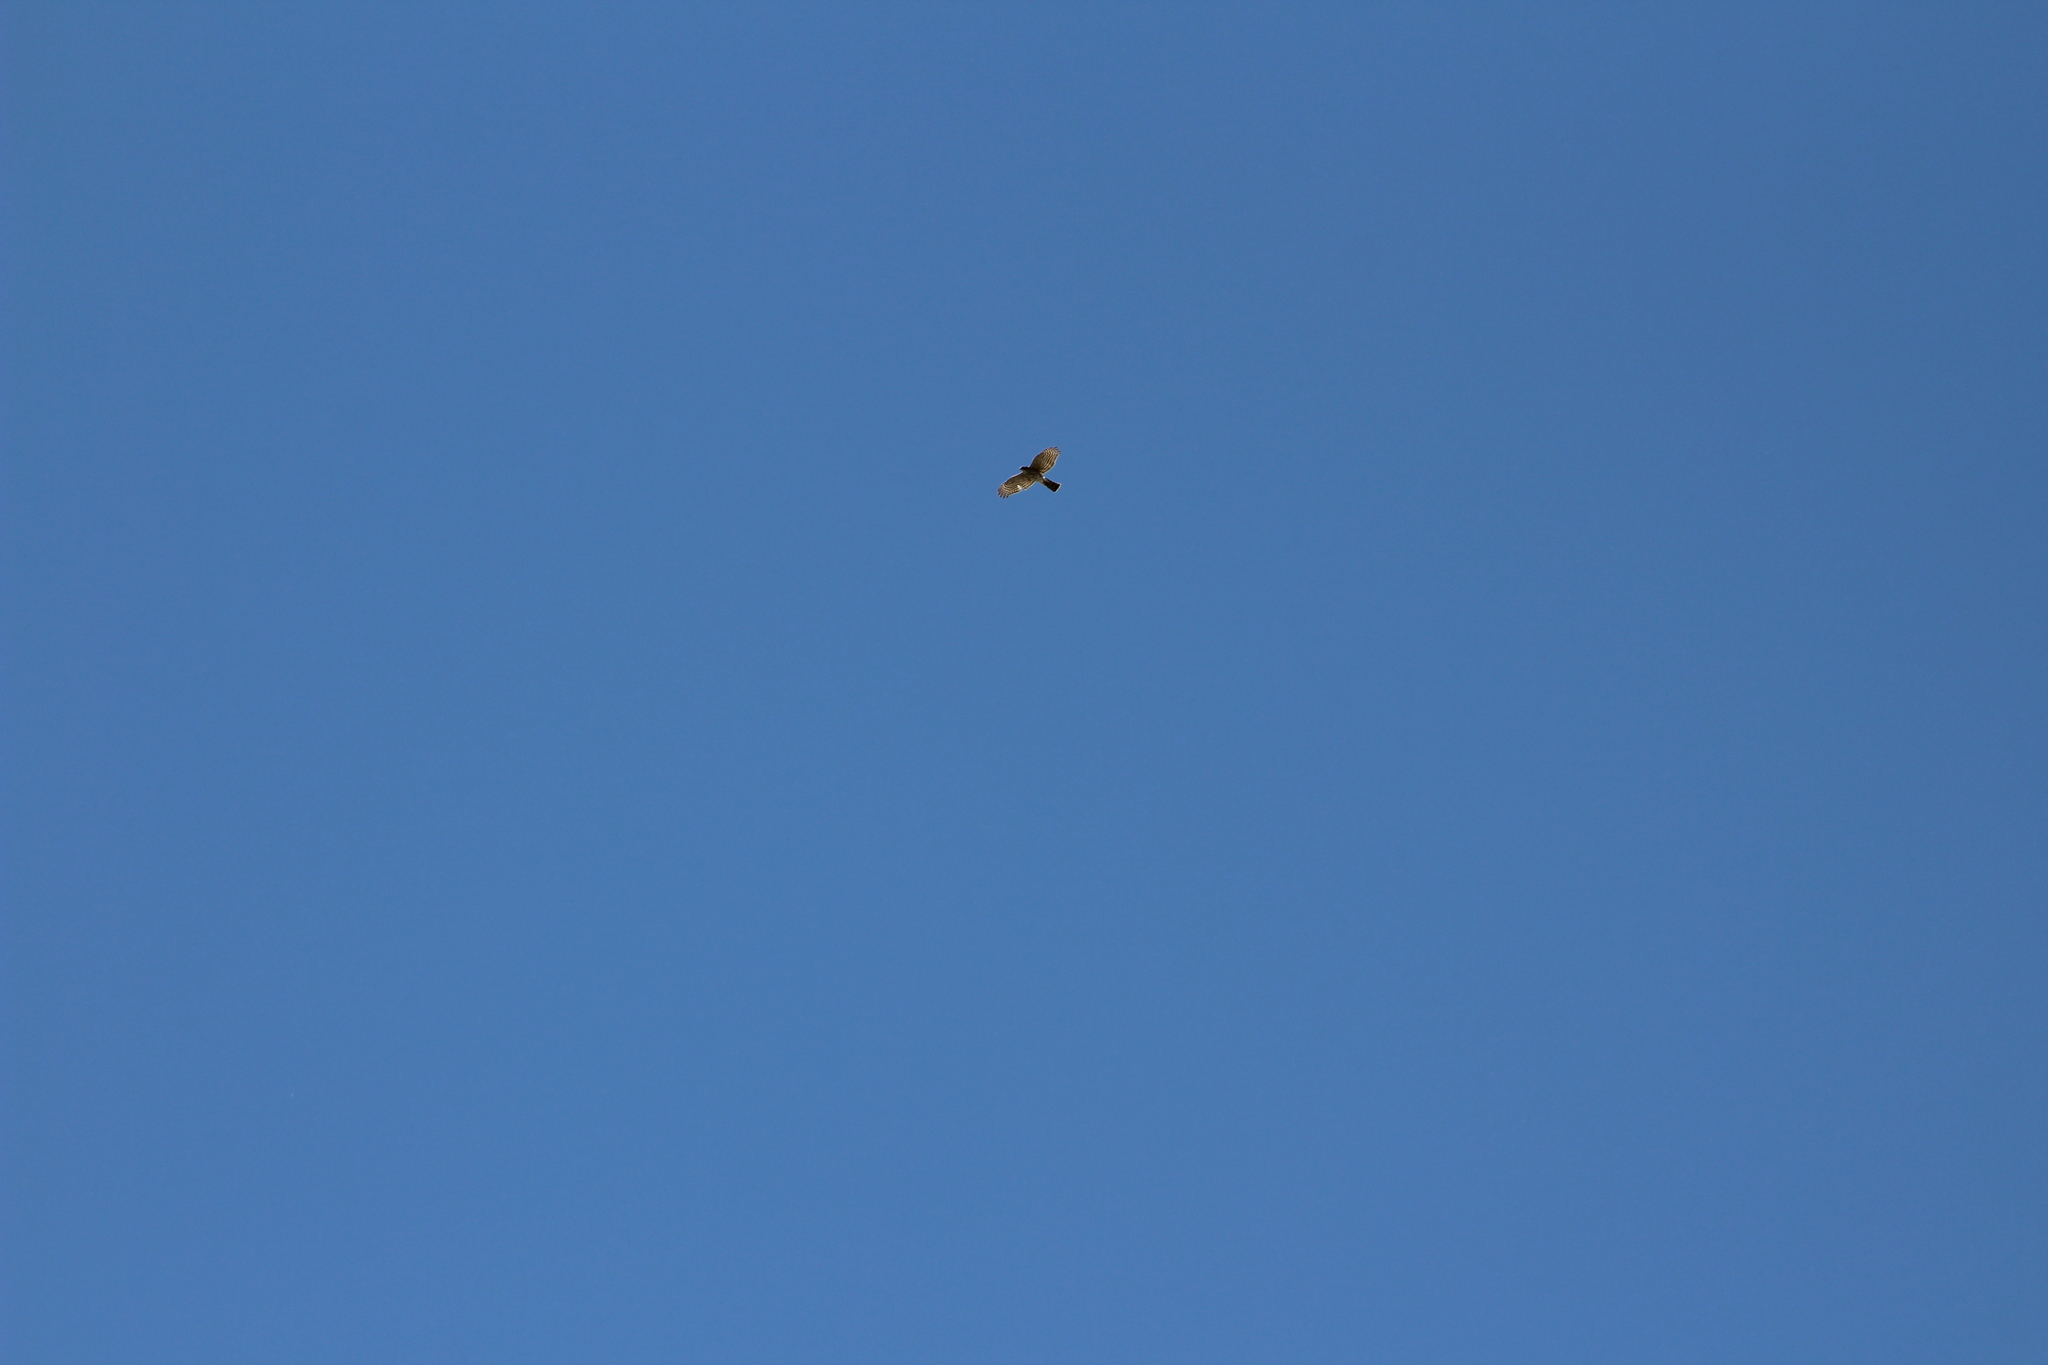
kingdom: Animalia
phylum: Chordata
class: Aves
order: Accipitriformes
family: Accipitridae
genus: Accipiter
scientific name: Accipiter striatus
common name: Sharp-shinned hawk
